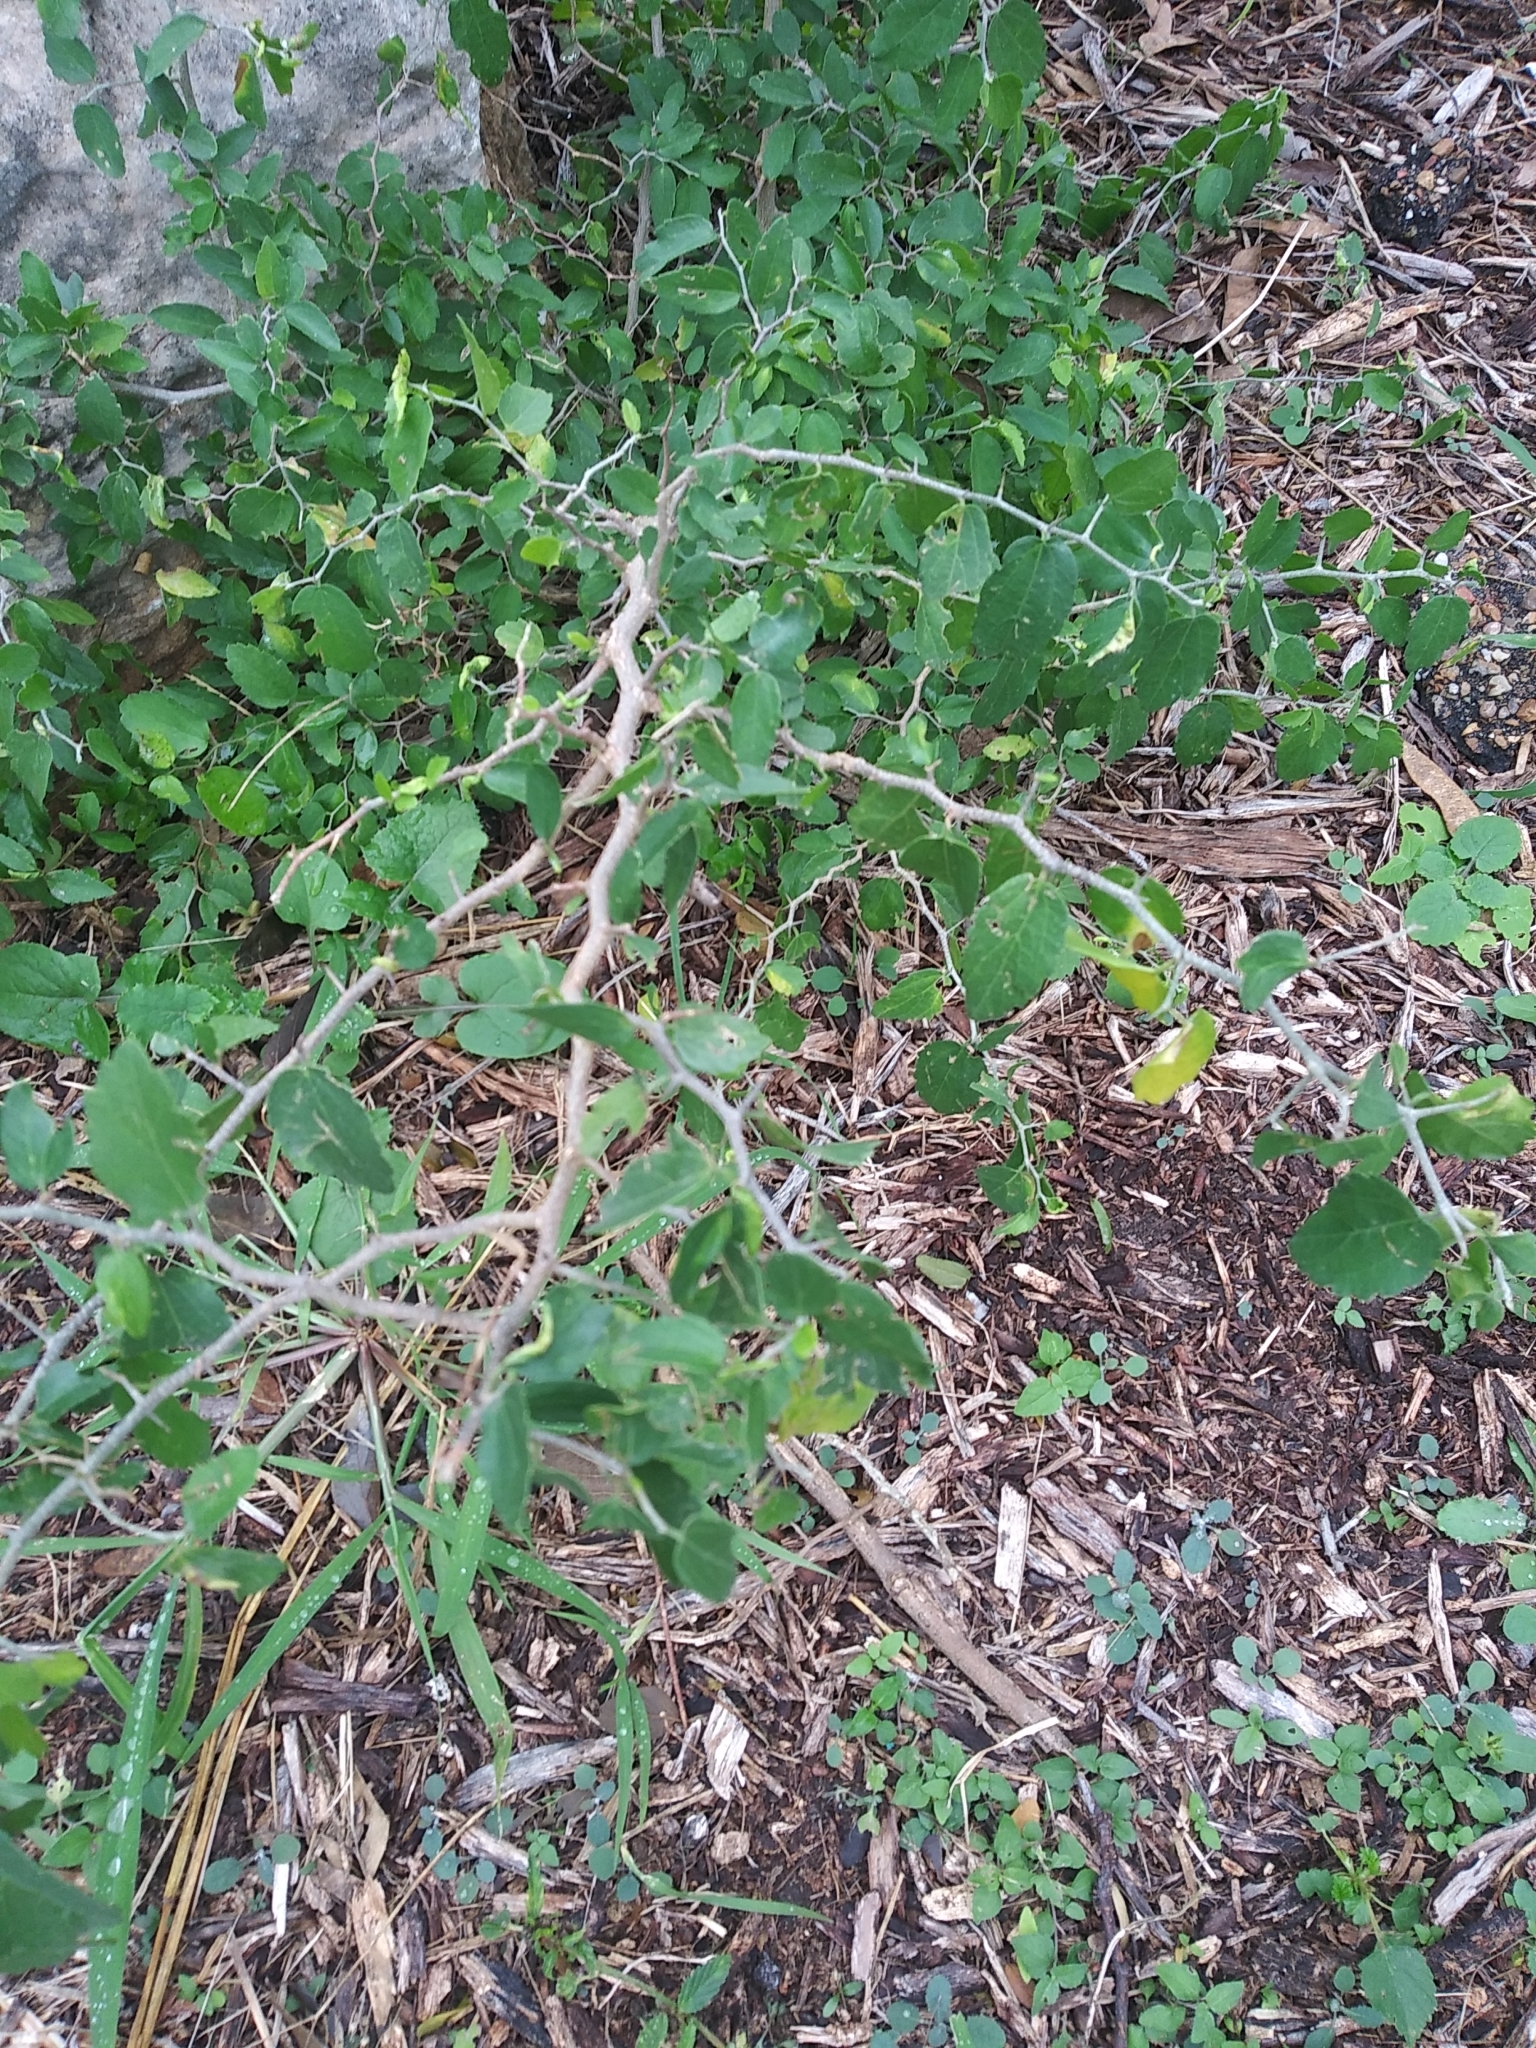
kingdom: Plantae
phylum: Tracheophyta
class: Magnoliopsida
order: Rosales
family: Cannabaceae
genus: Celtis
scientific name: Celtis pallida
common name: Desert hackberry
